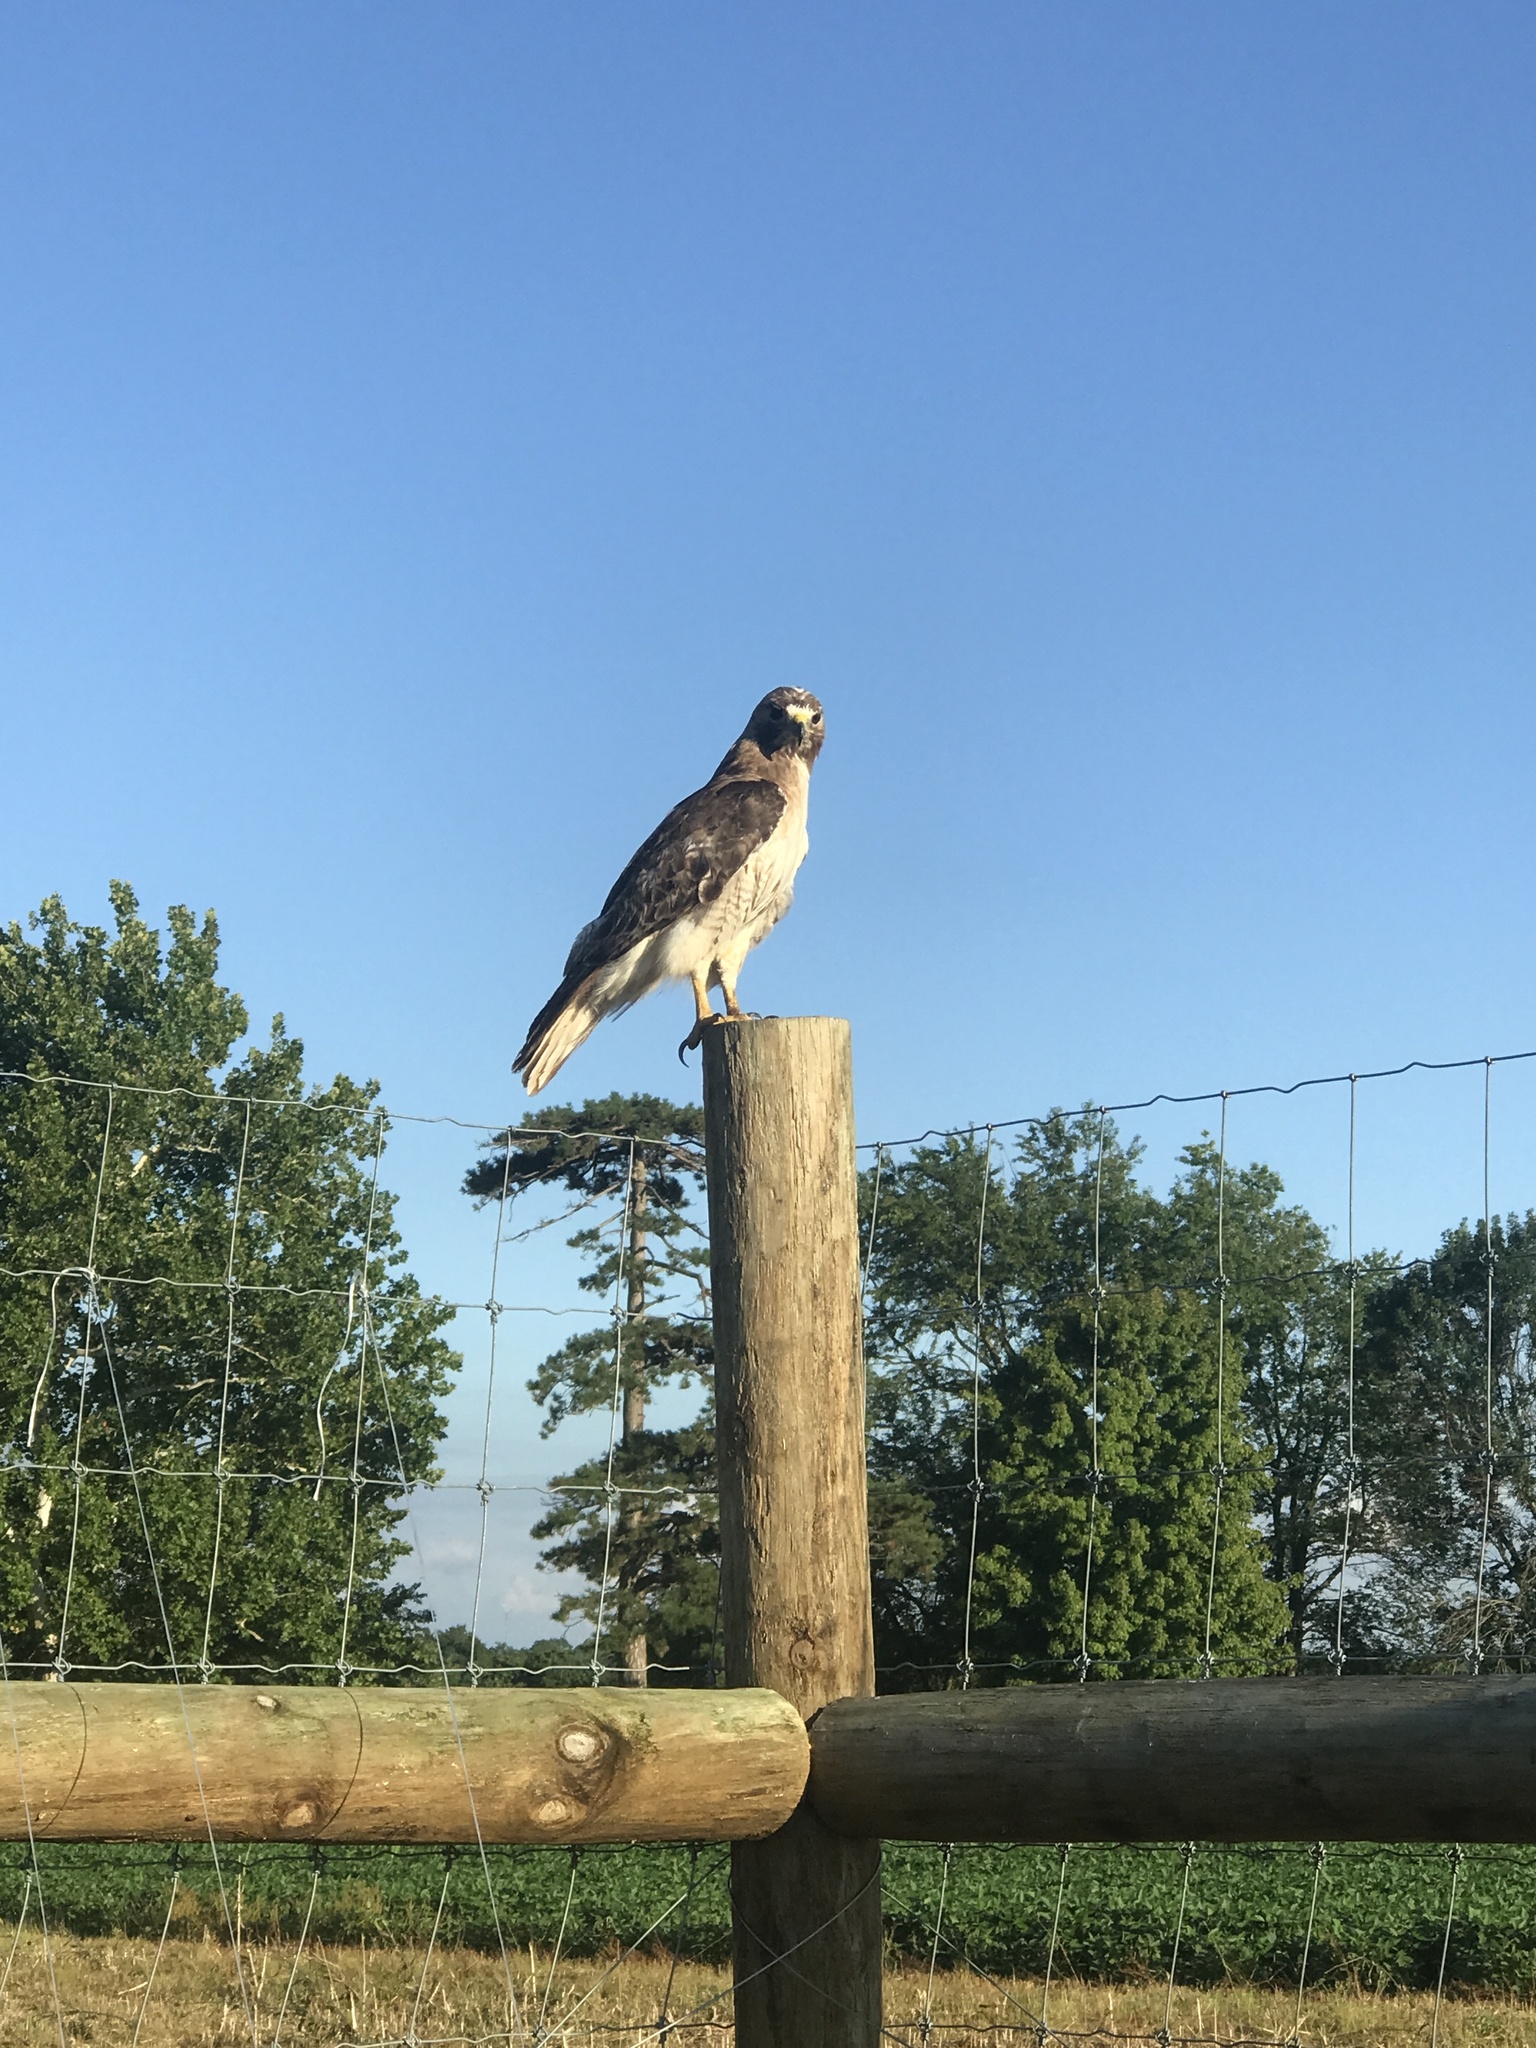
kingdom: Animalia
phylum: Chordata
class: Aves
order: Accipitriformes
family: Accipitridae
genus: Buteo
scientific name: Buteo jamaicensis
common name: Red-tailed hawk
